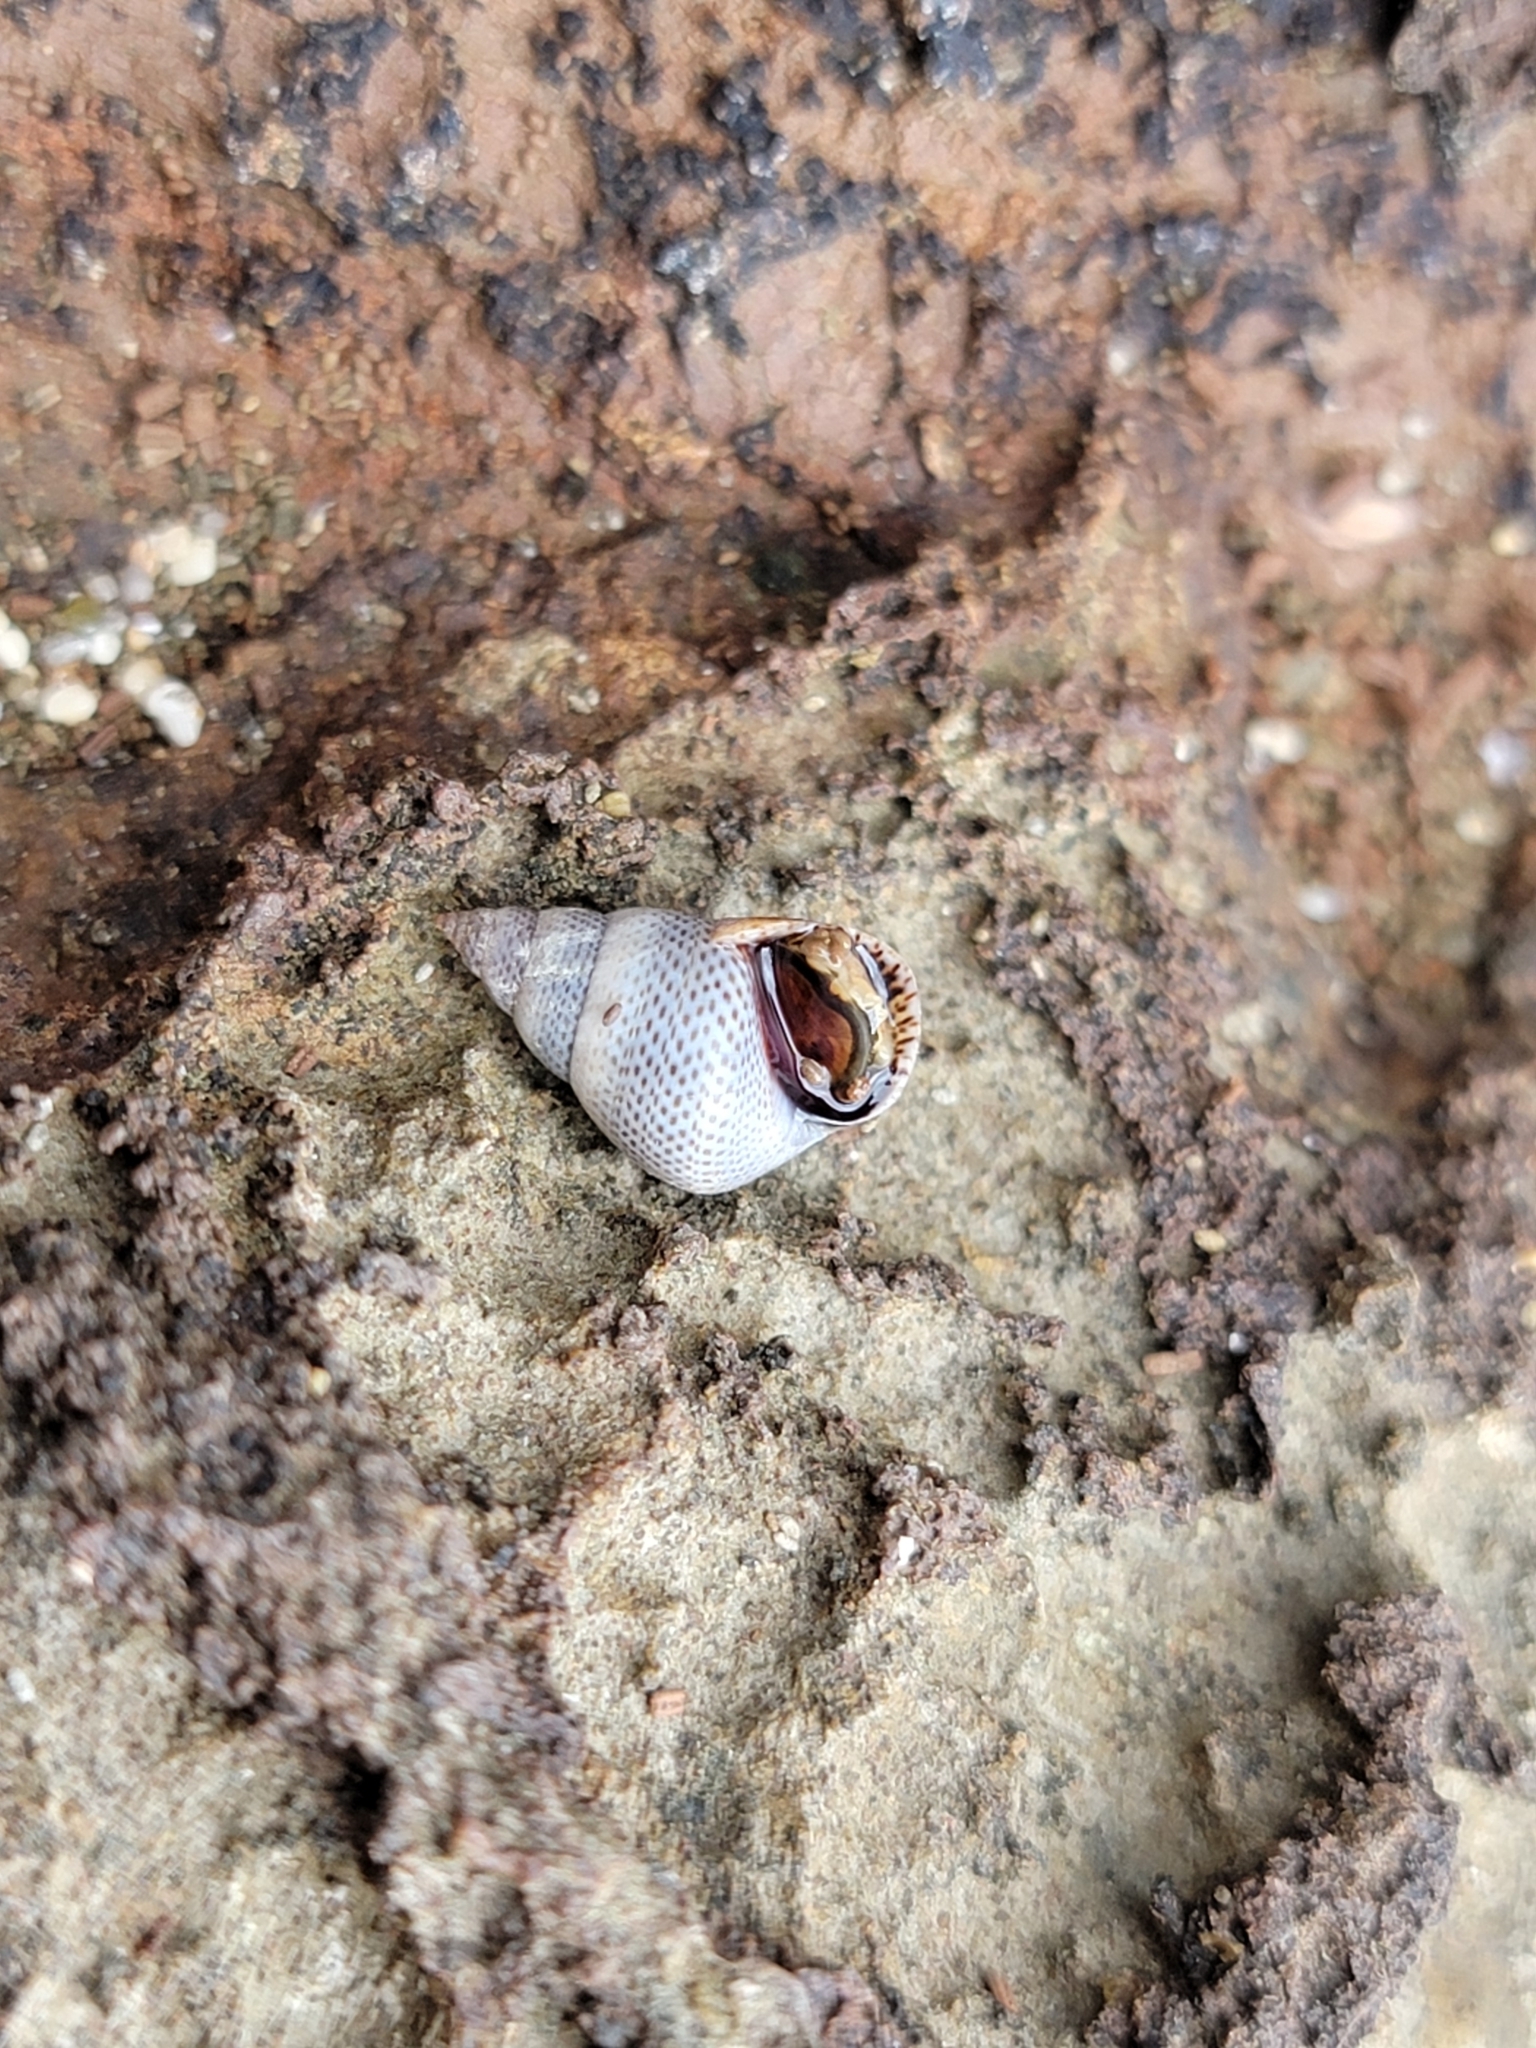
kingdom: Animalia
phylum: Mollusca
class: Gastropoda
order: Littorinimorpha
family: Littorinidae
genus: Littoraria
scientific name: Littoraria pintado
